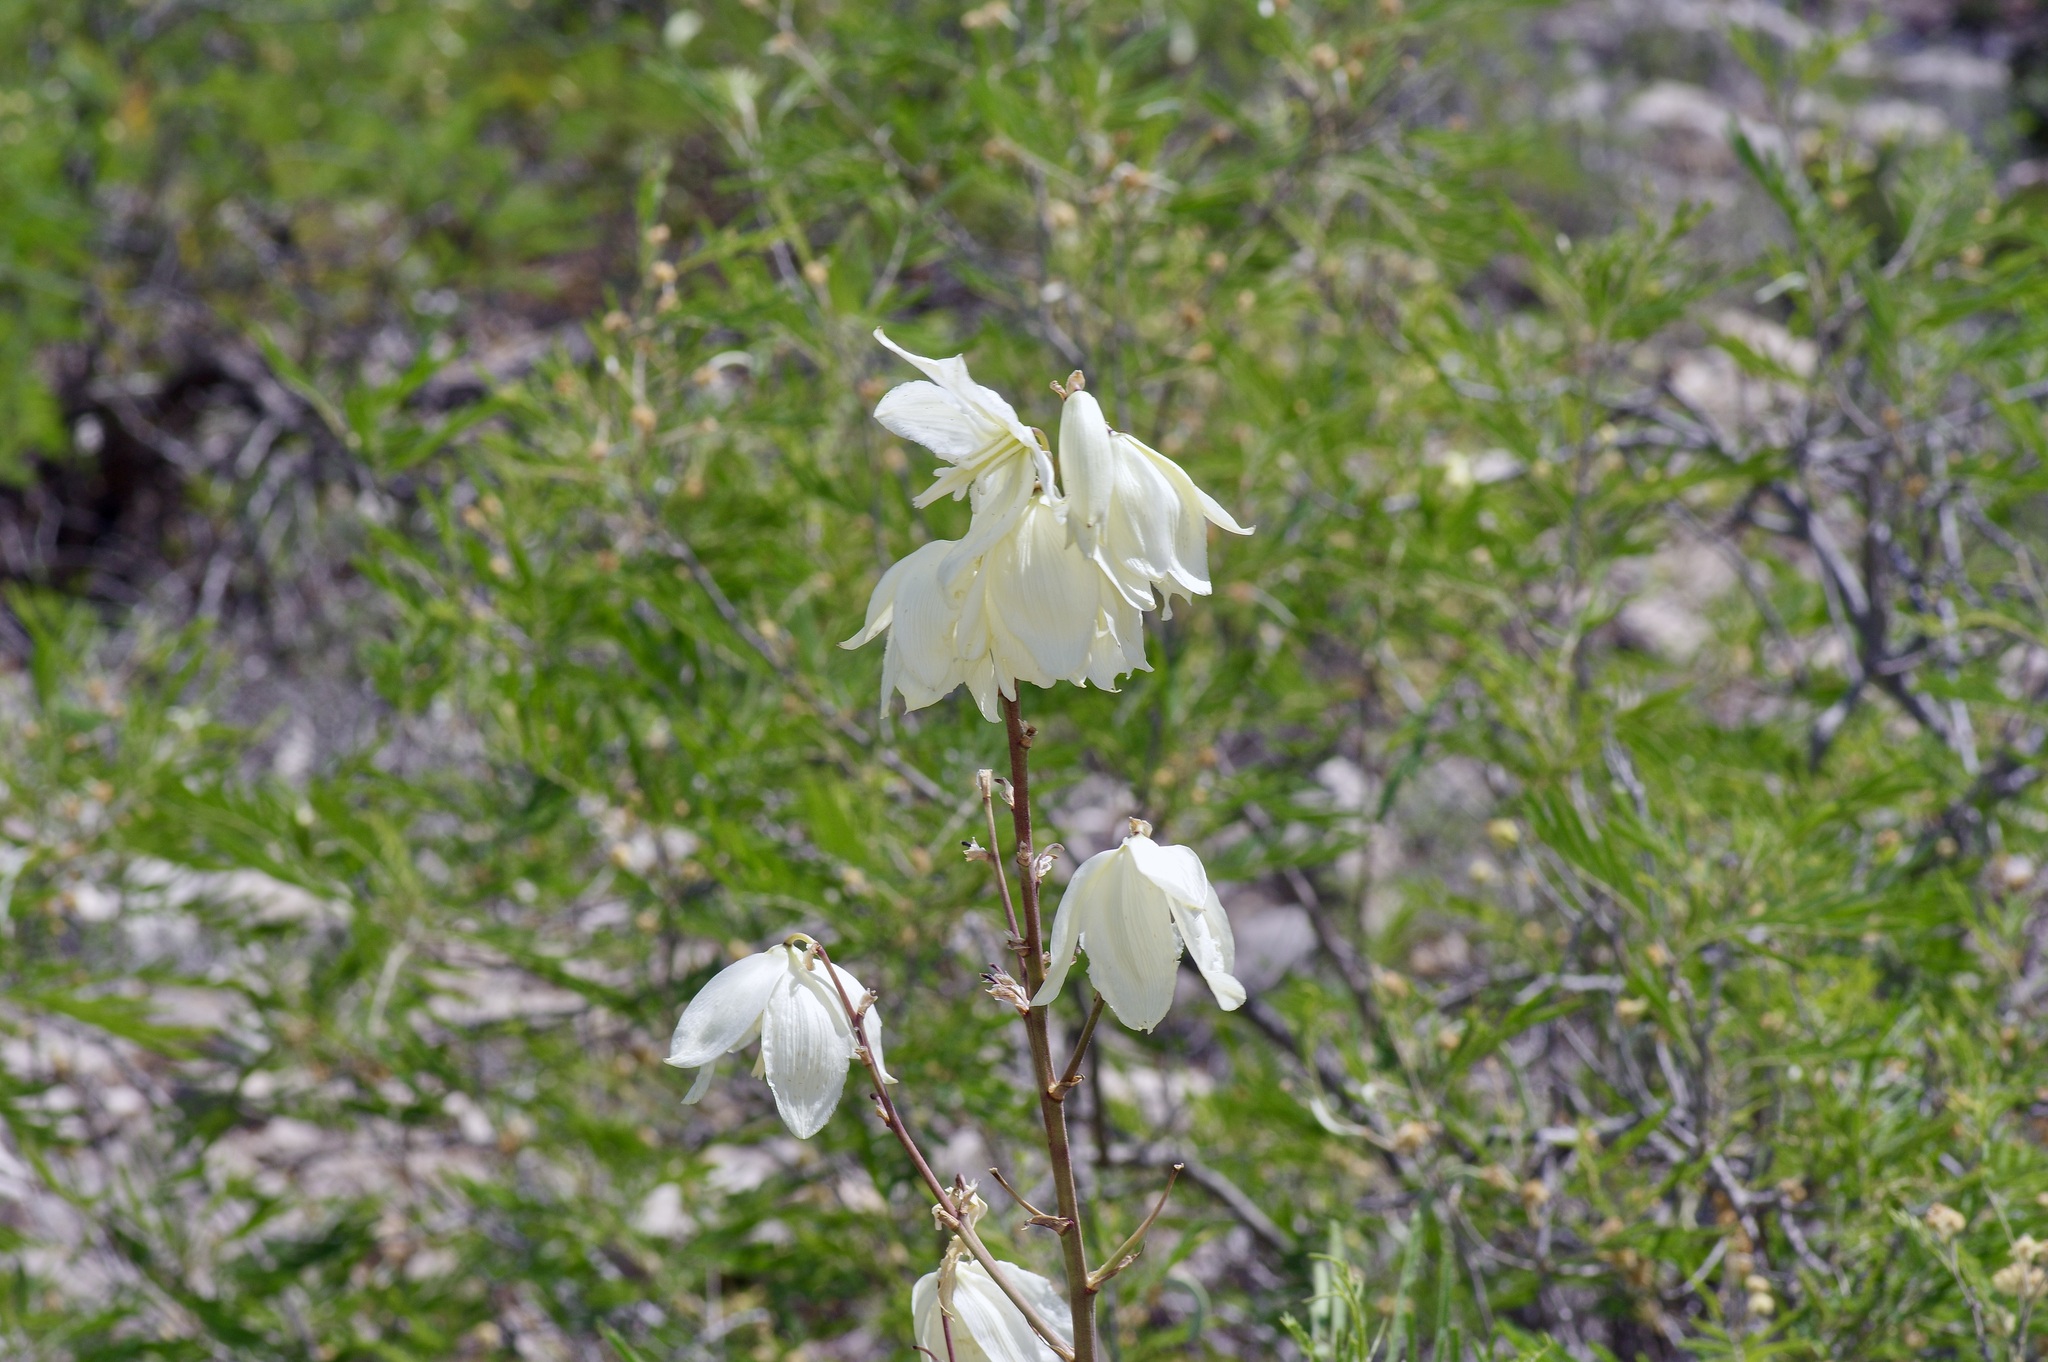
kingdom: Plantae
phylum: Tracheophyta
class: Liliopsida
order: Asparagales
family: Asparagaceae
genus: Yucca
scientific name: Yucca reverchonii
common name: San angelo yucca
